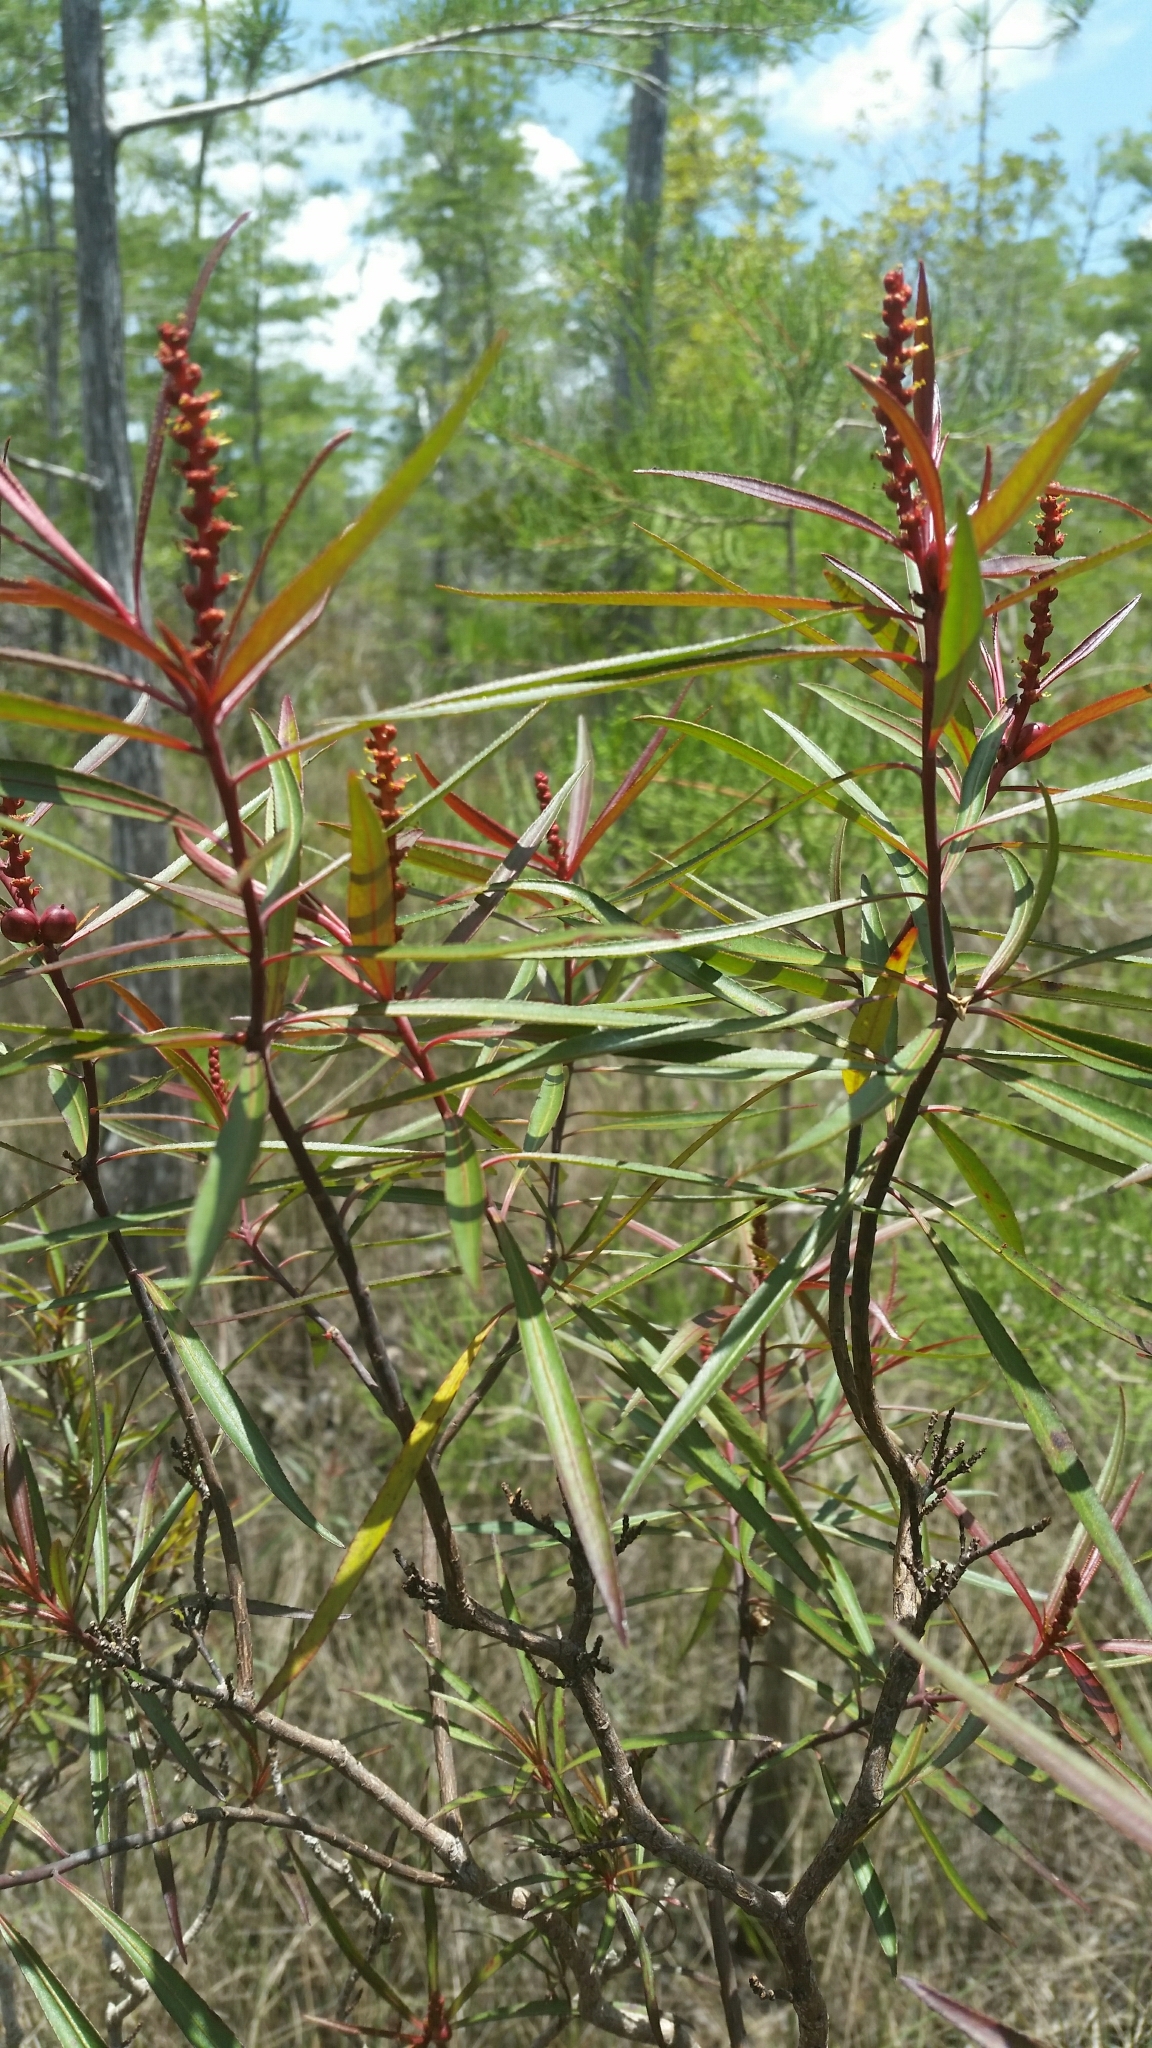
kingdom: Plantae
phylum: Tracheophyta
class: Magnoliopsida
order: Malpighiales
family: Euphorbiaceae
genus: Stillingia
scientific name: Stillingia aquatica
